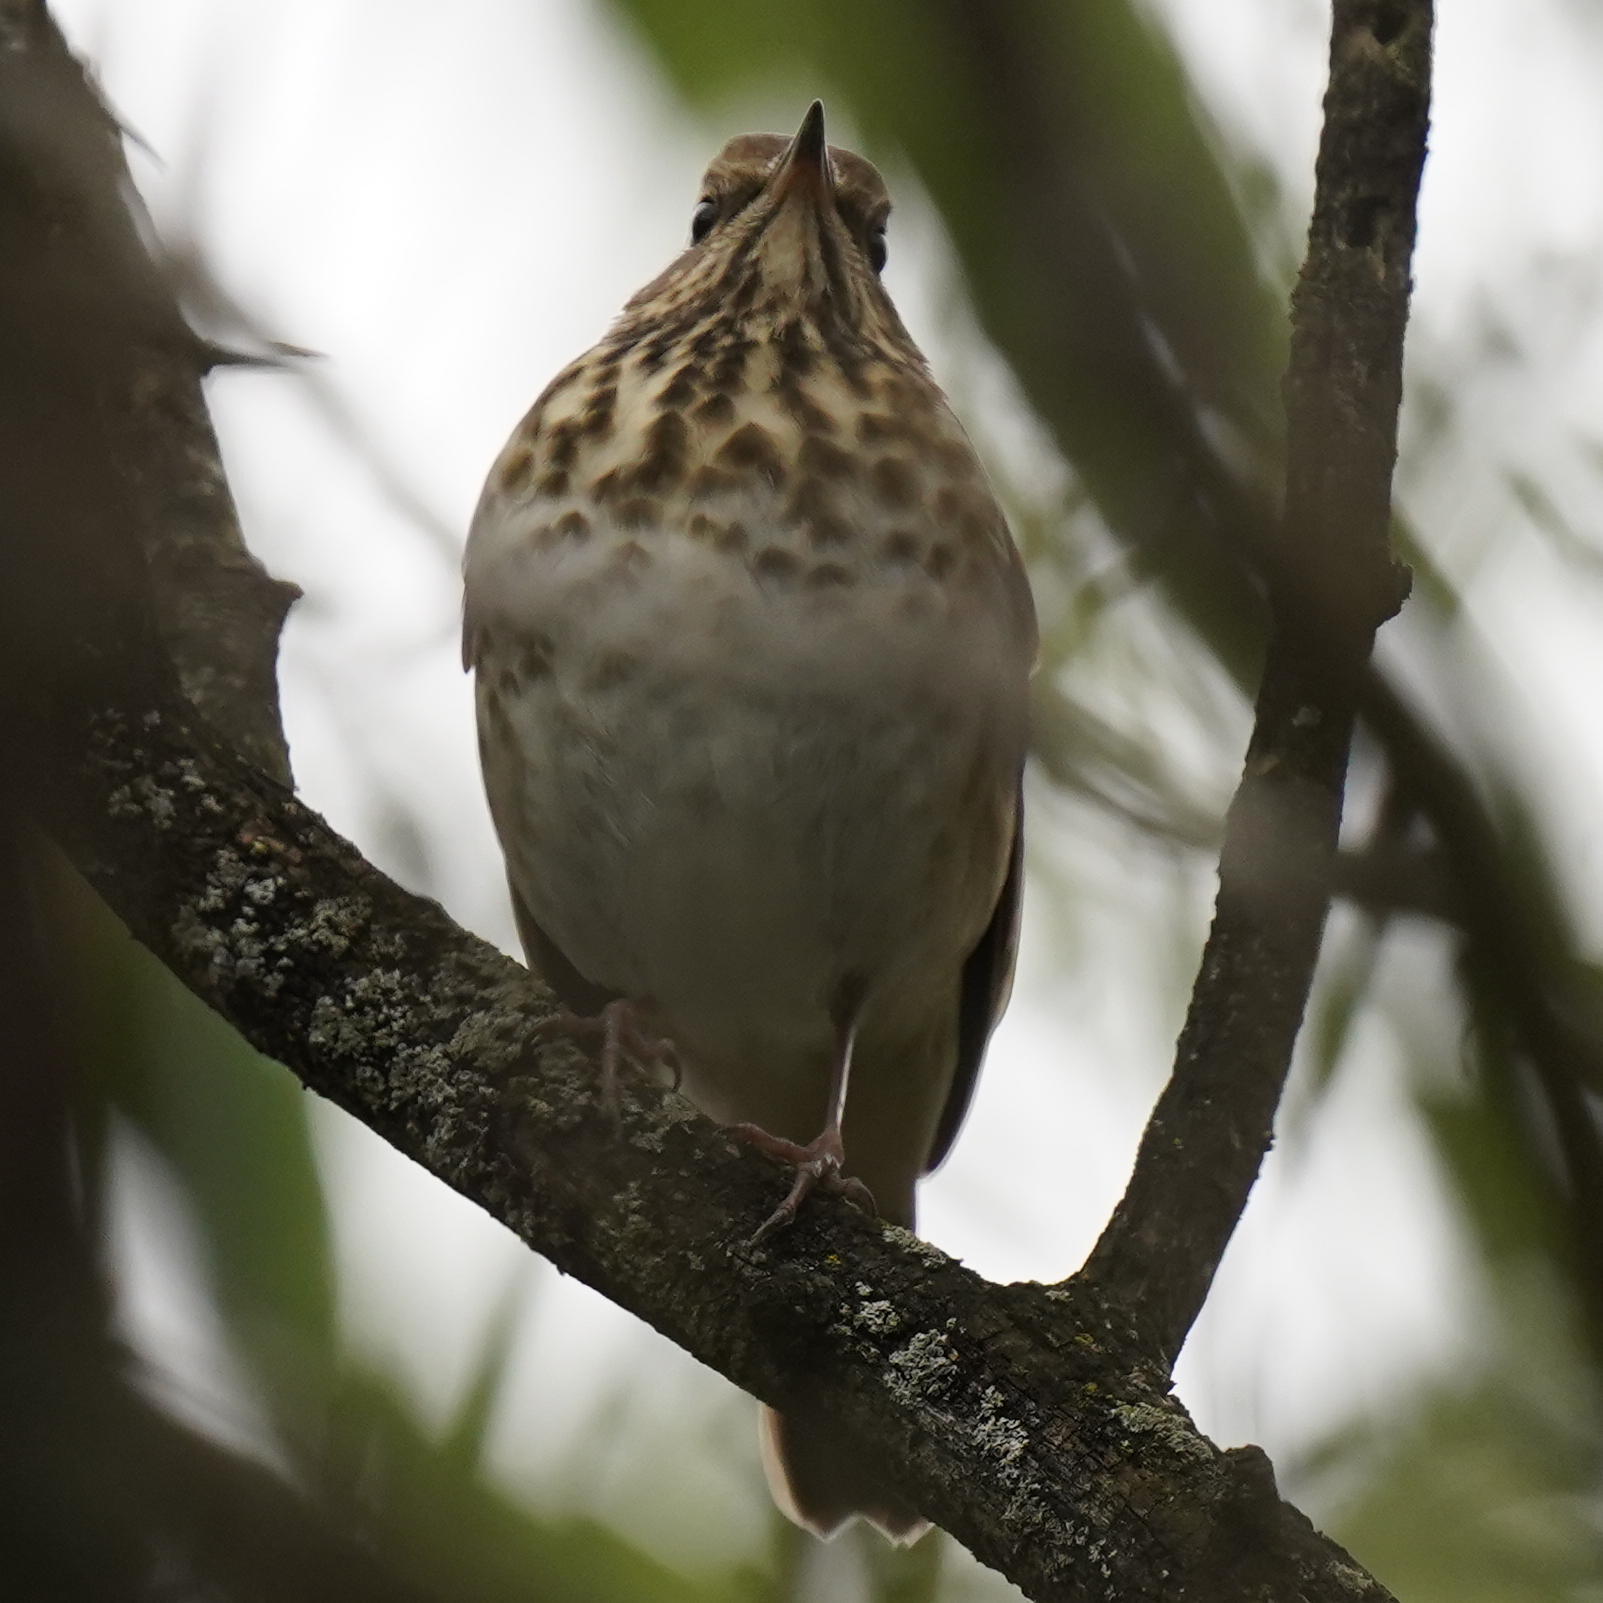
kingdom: Animalia
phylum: Chordata
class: Aves
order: Passeriformes
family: Turdidae
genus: Catharus
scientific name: Catharus guttatus
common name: Hermit thrush
